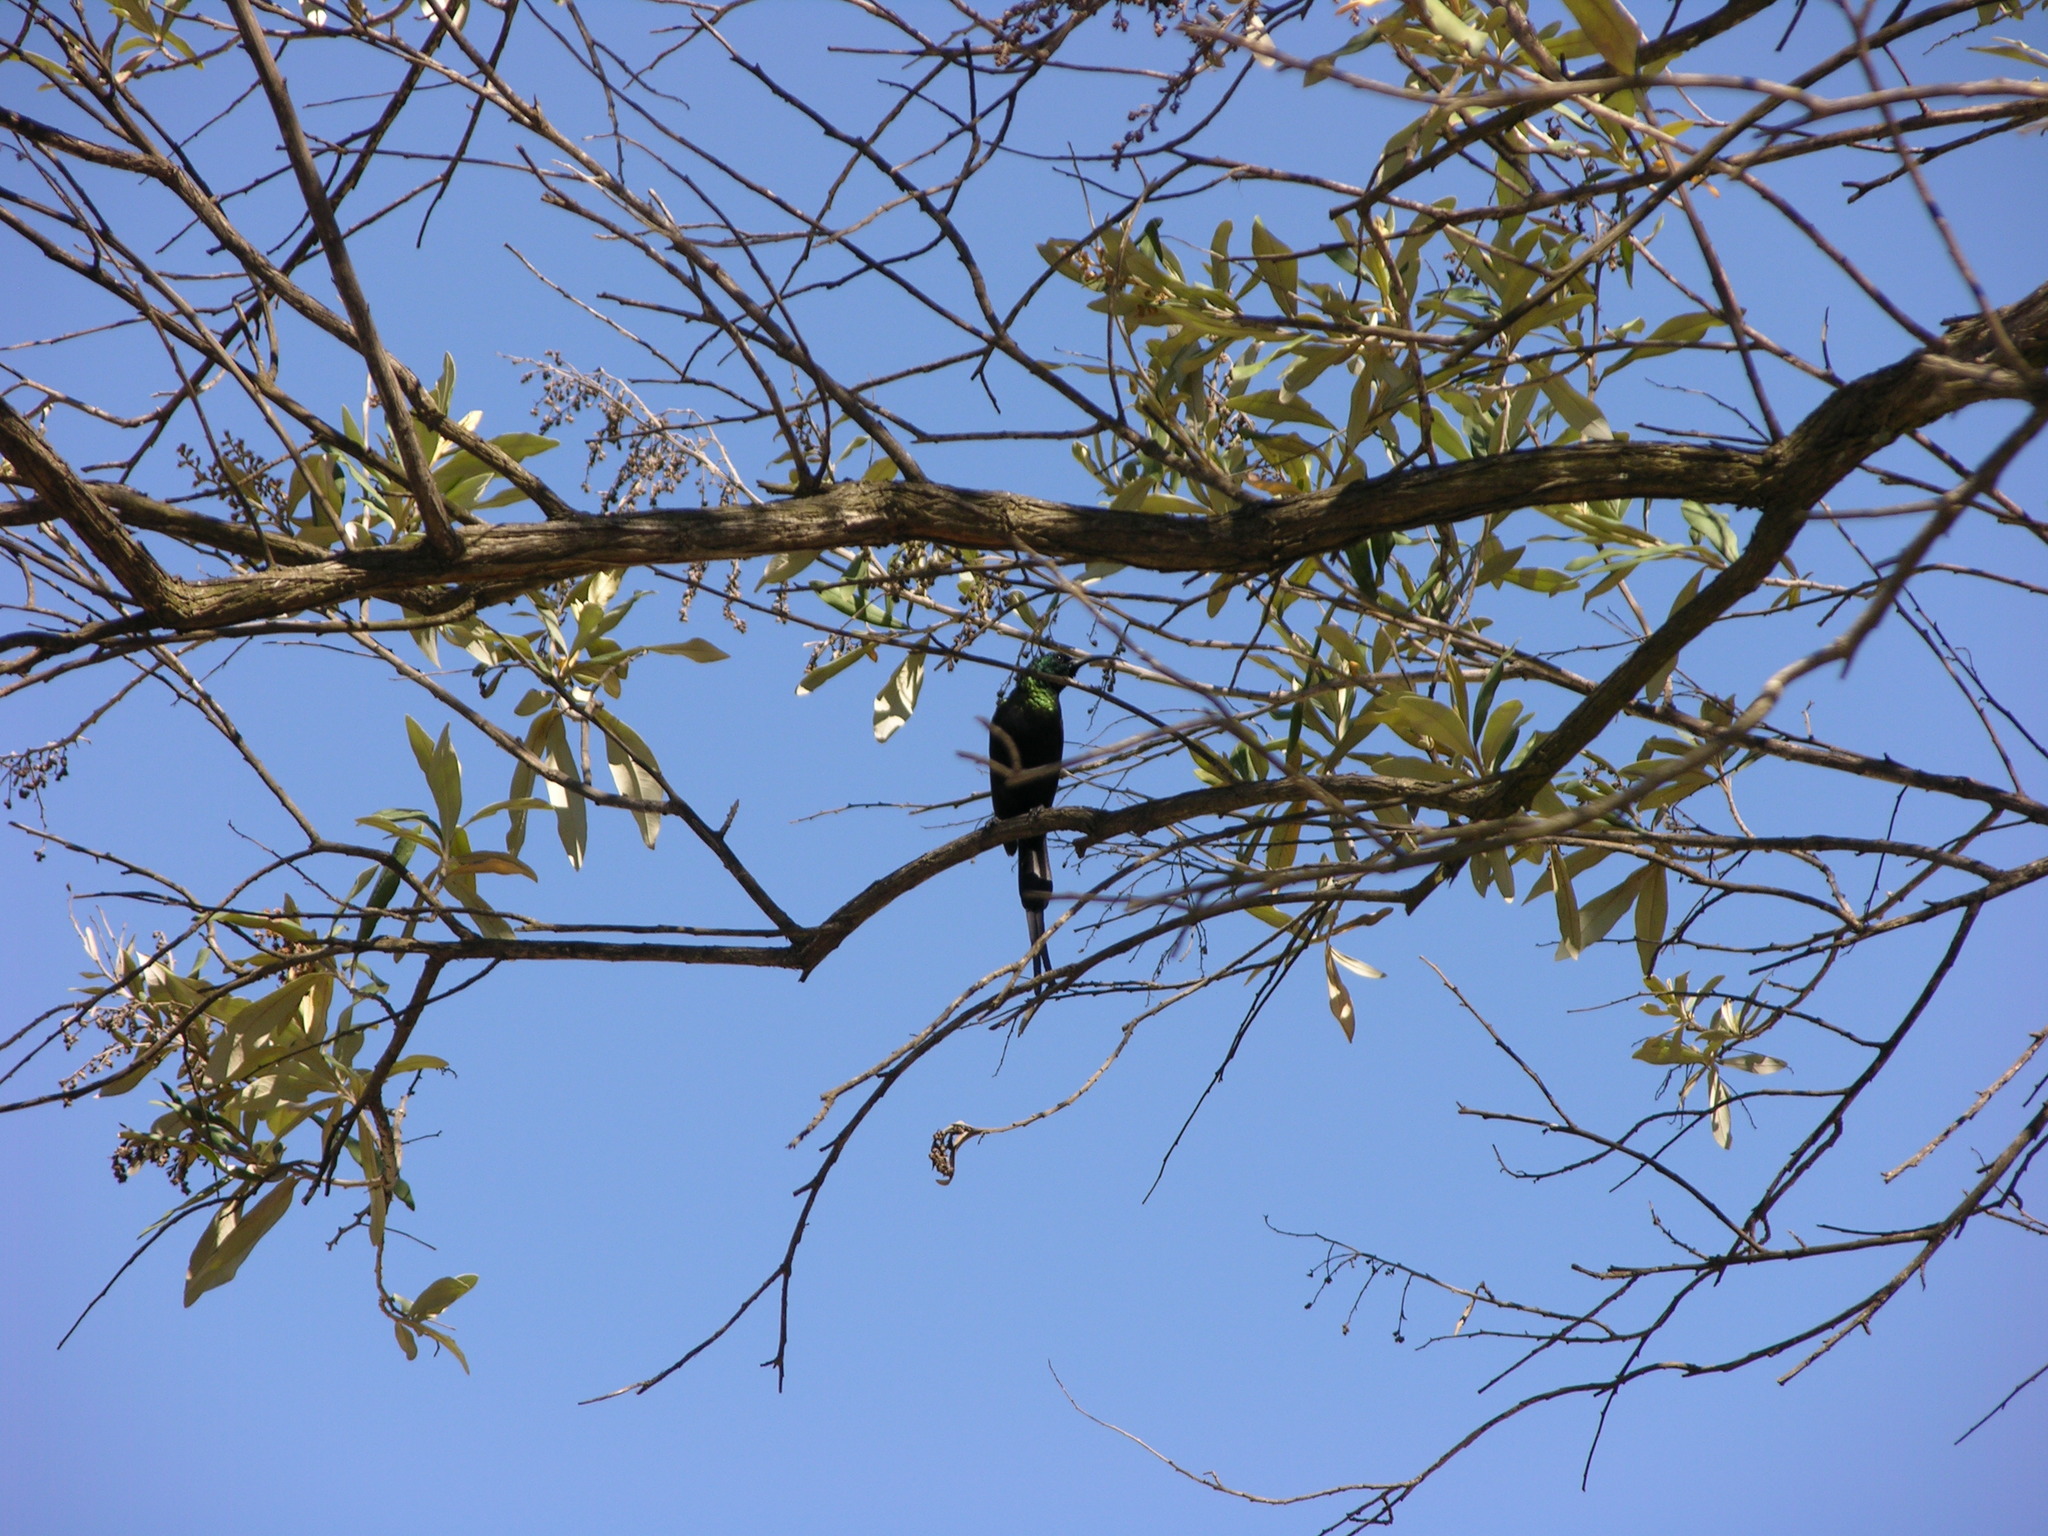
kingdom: Animalia
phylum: Chordata
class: Aves
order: Passeriformes
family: Nectariniidae
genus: Nectarinia
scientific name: Nectarinia kilimensis
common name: Bronzy sunbird
